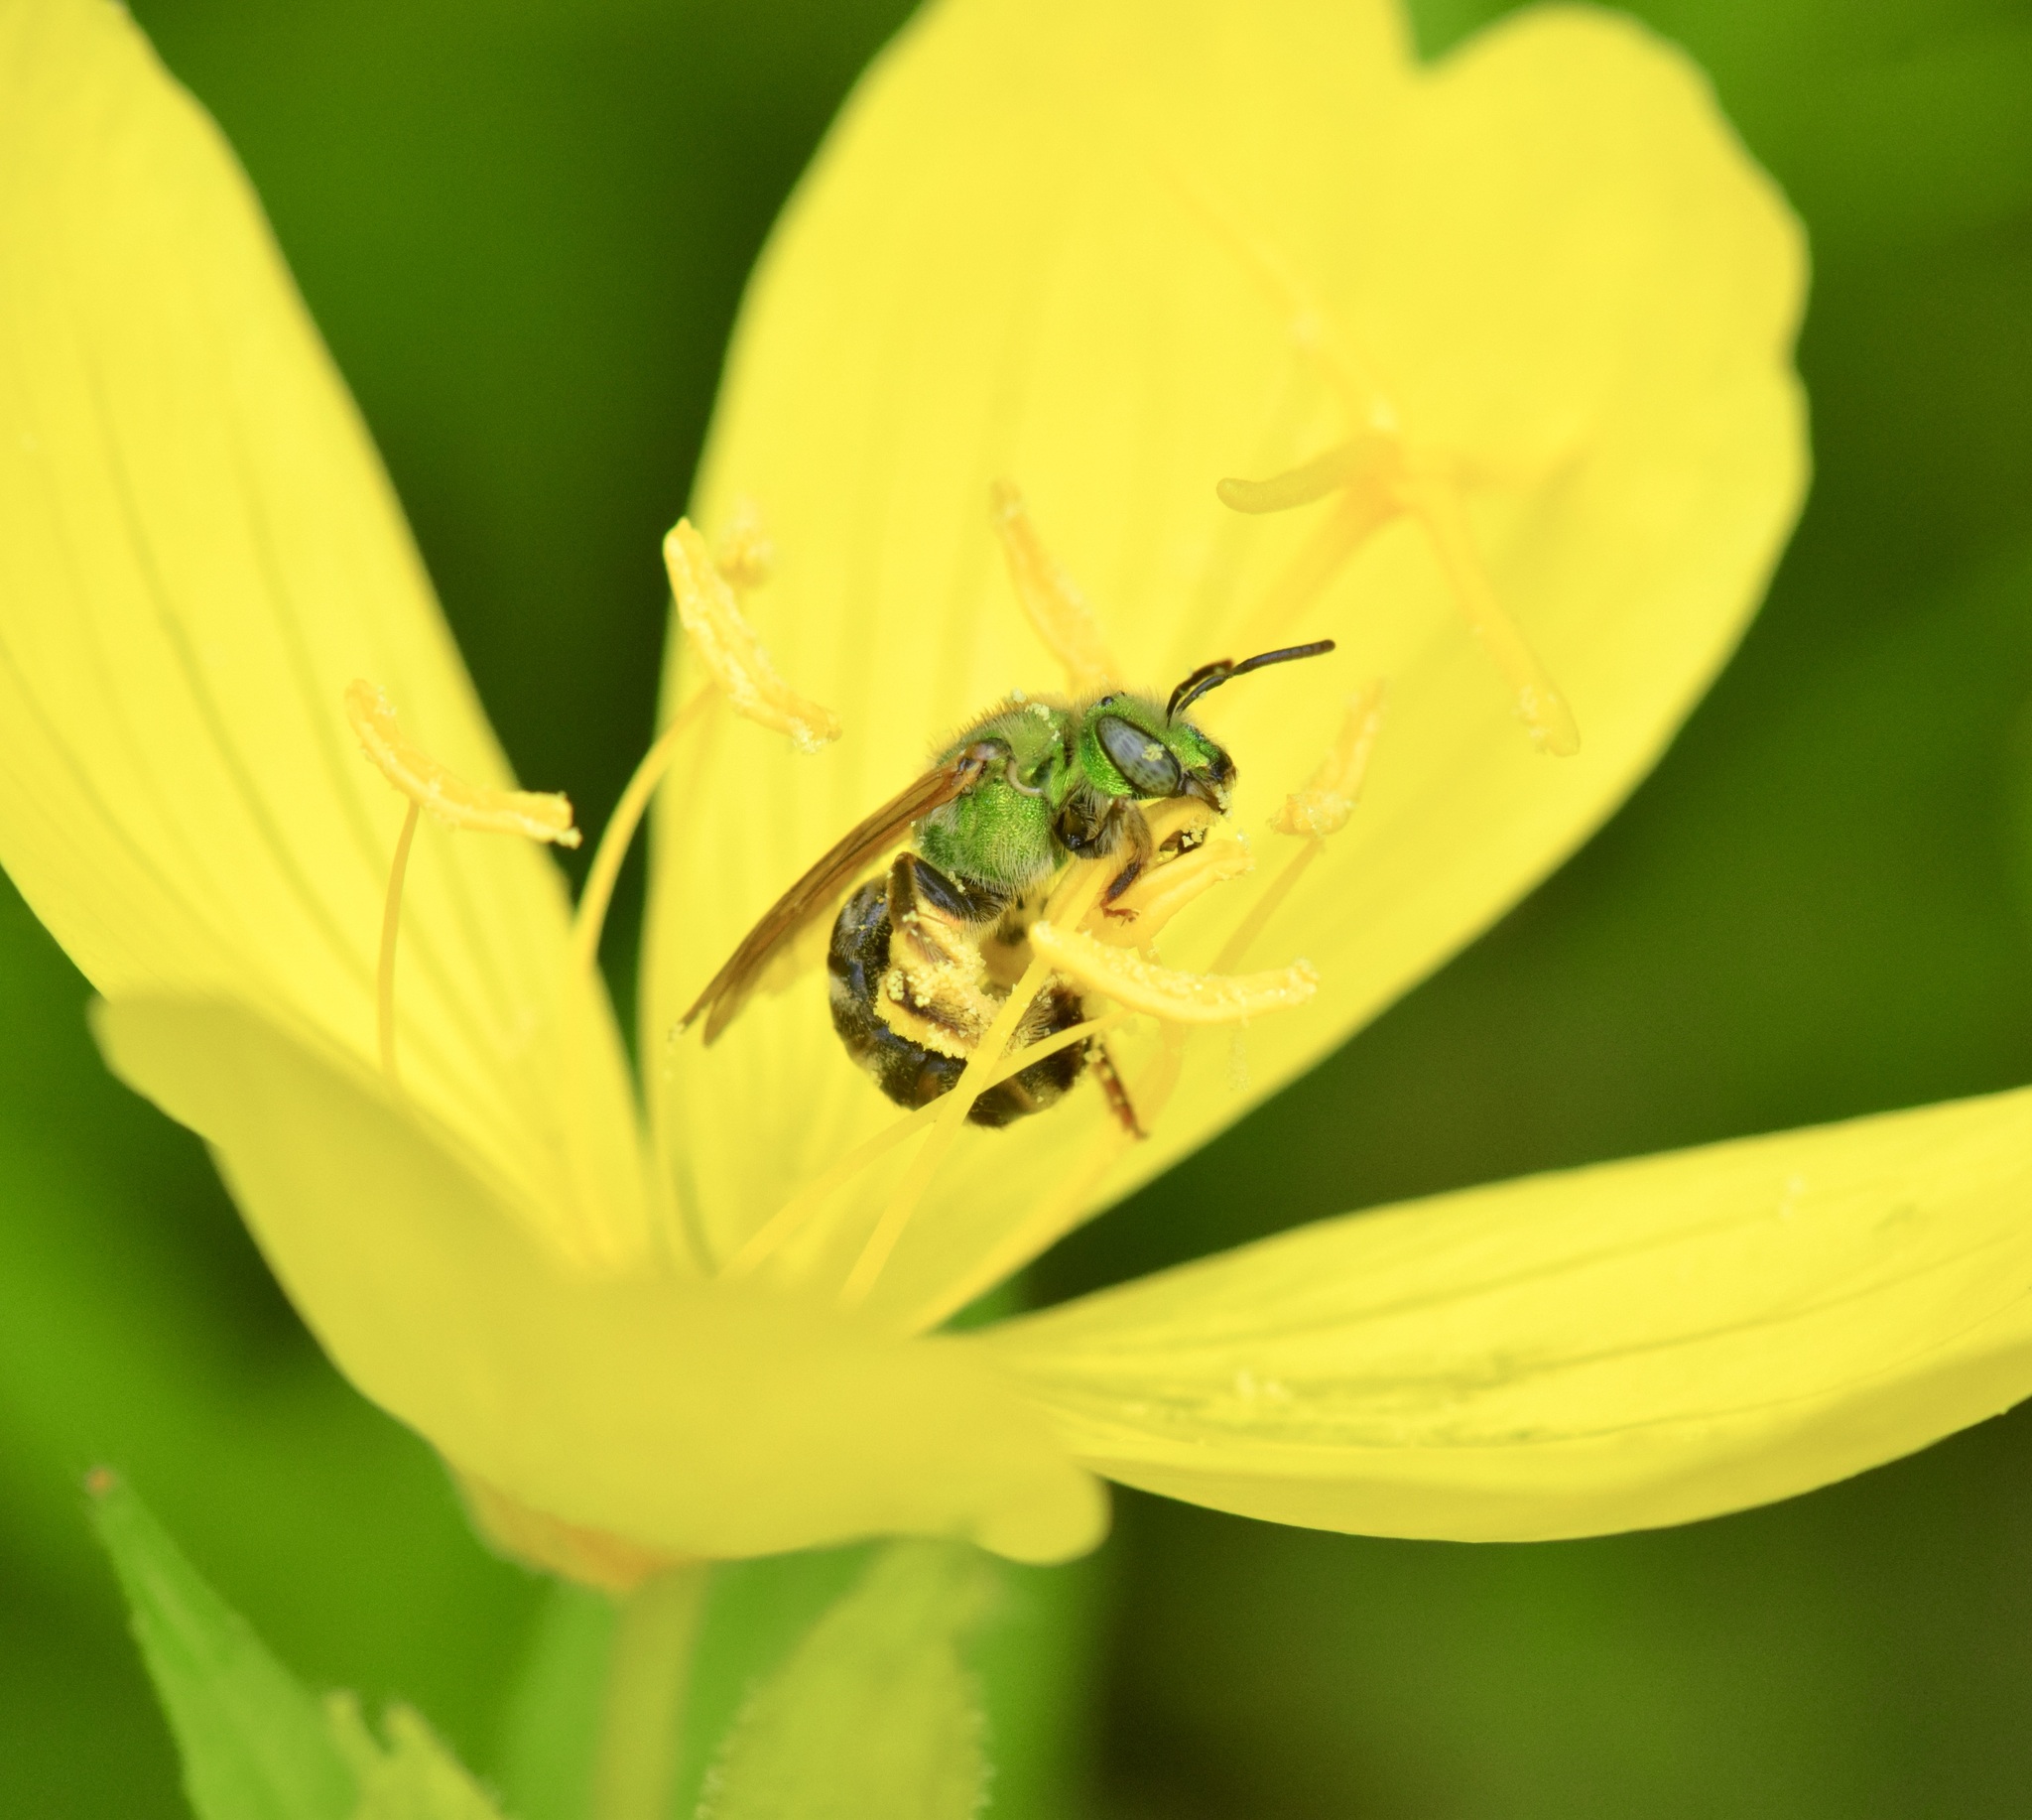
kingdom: Animalia
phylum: Arthropoda
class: Insecta
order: Hymenoptera
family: Halictidae
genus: Agapostemon
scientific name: Agapostemon virescens
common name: Bicolored striped sweat bee
